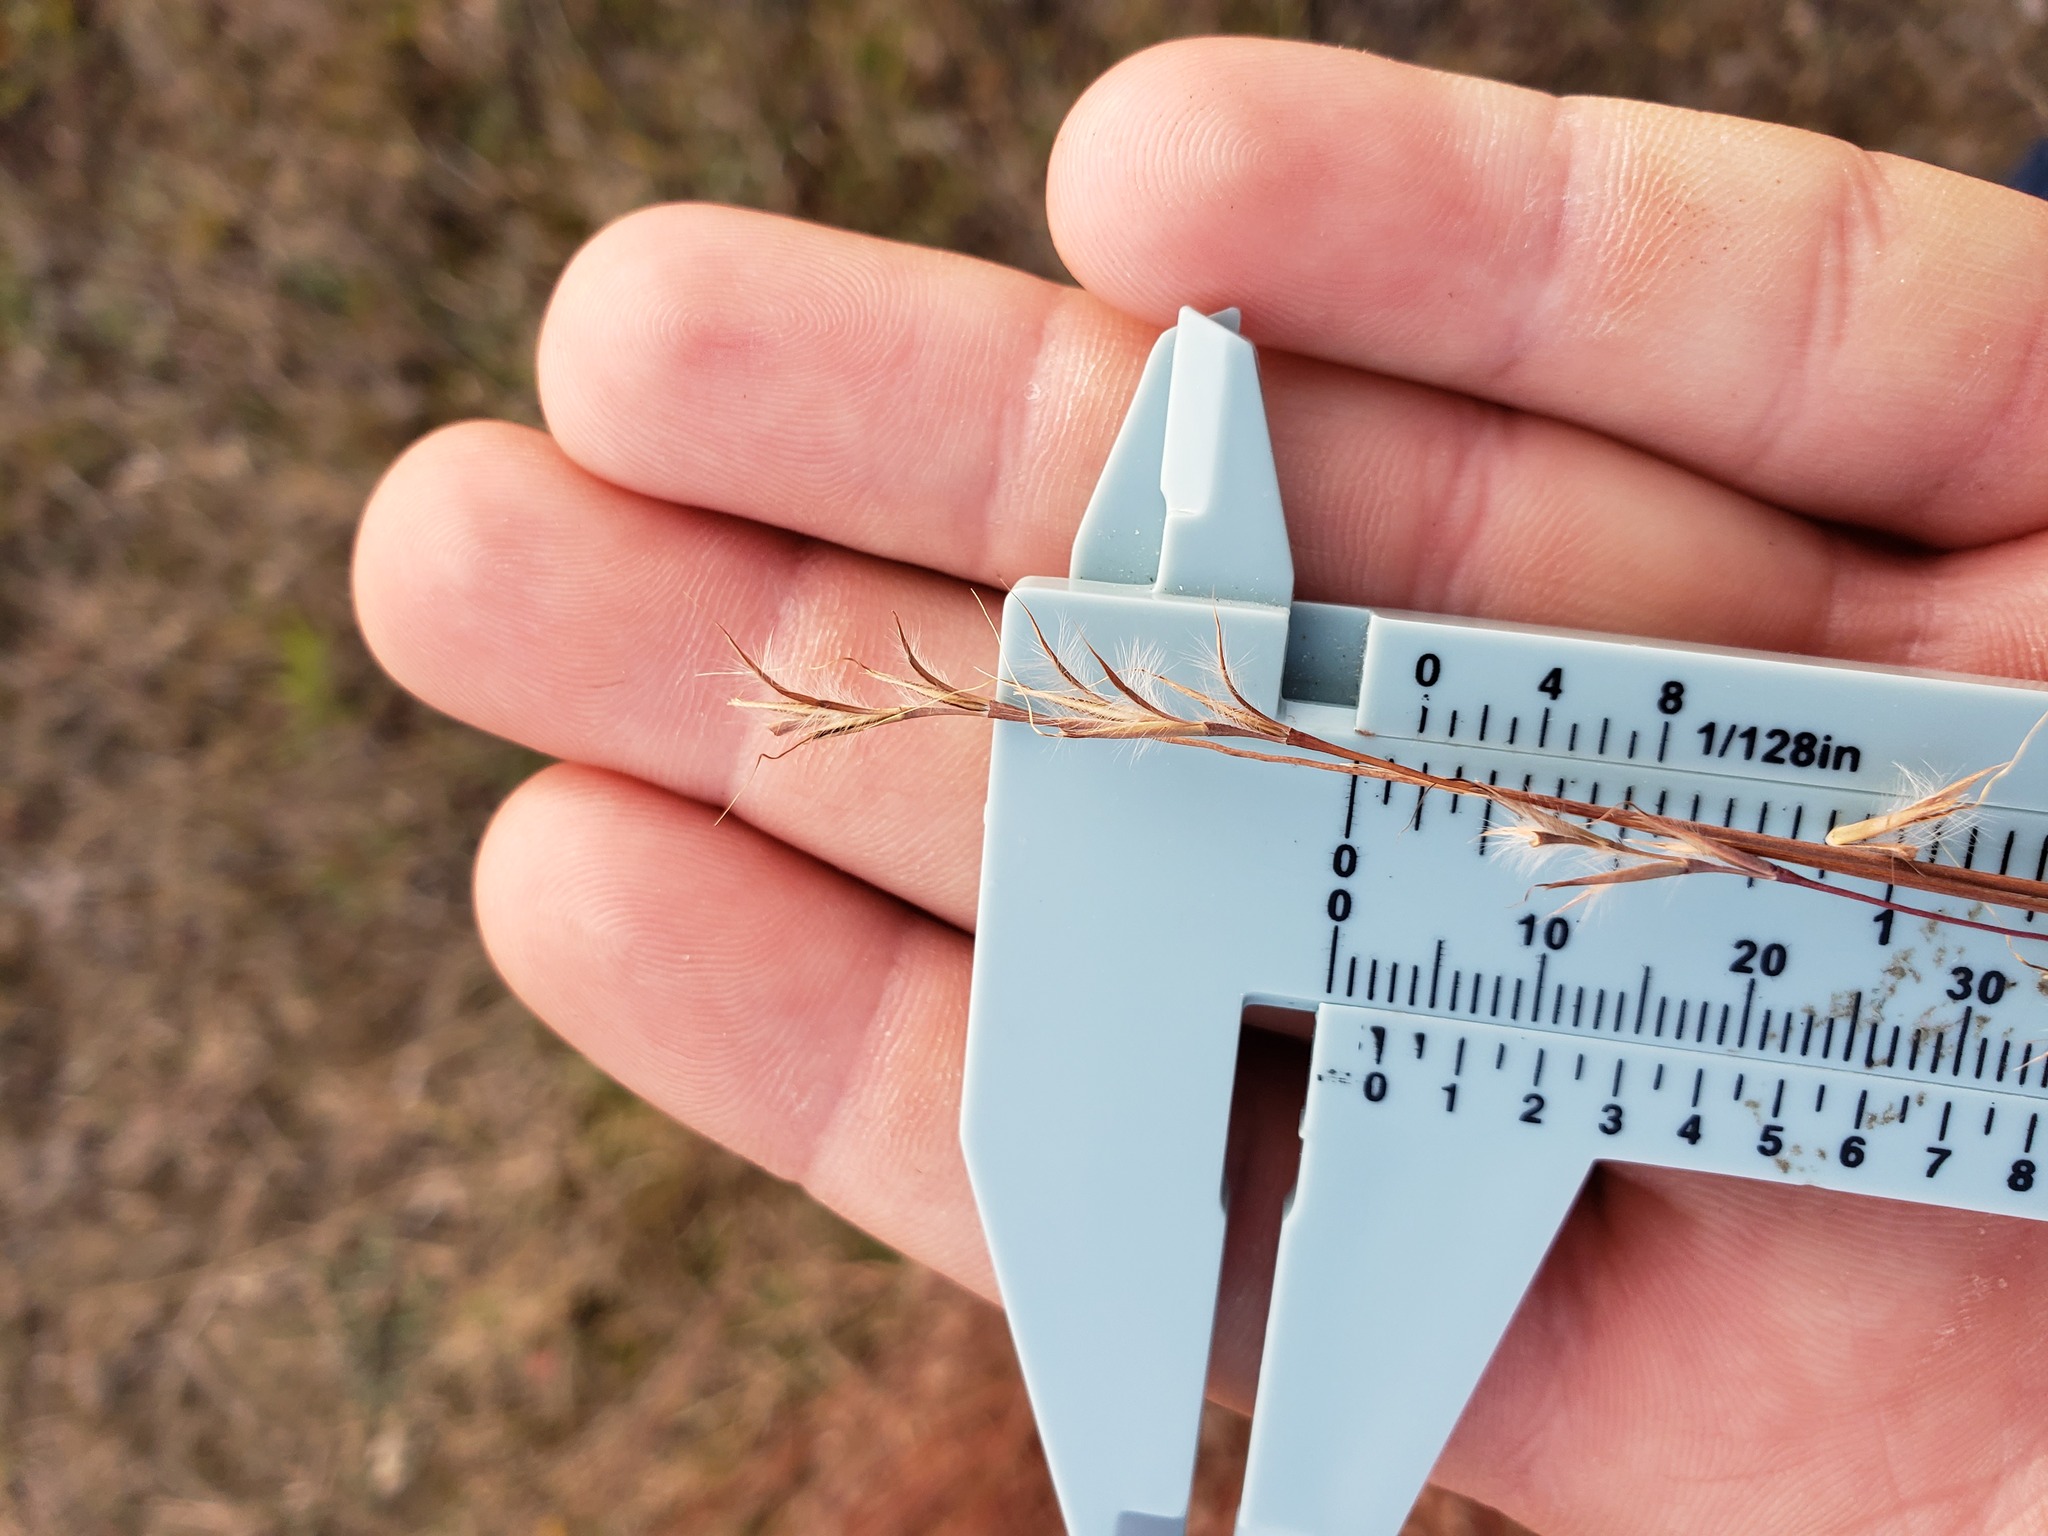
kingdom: Plantae
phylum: Tracheophyta
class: Liliopsida
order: Poales
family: Poaceae
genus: Schizachyrium
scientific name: Schizachyrium scoparium
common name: Little bluestem
